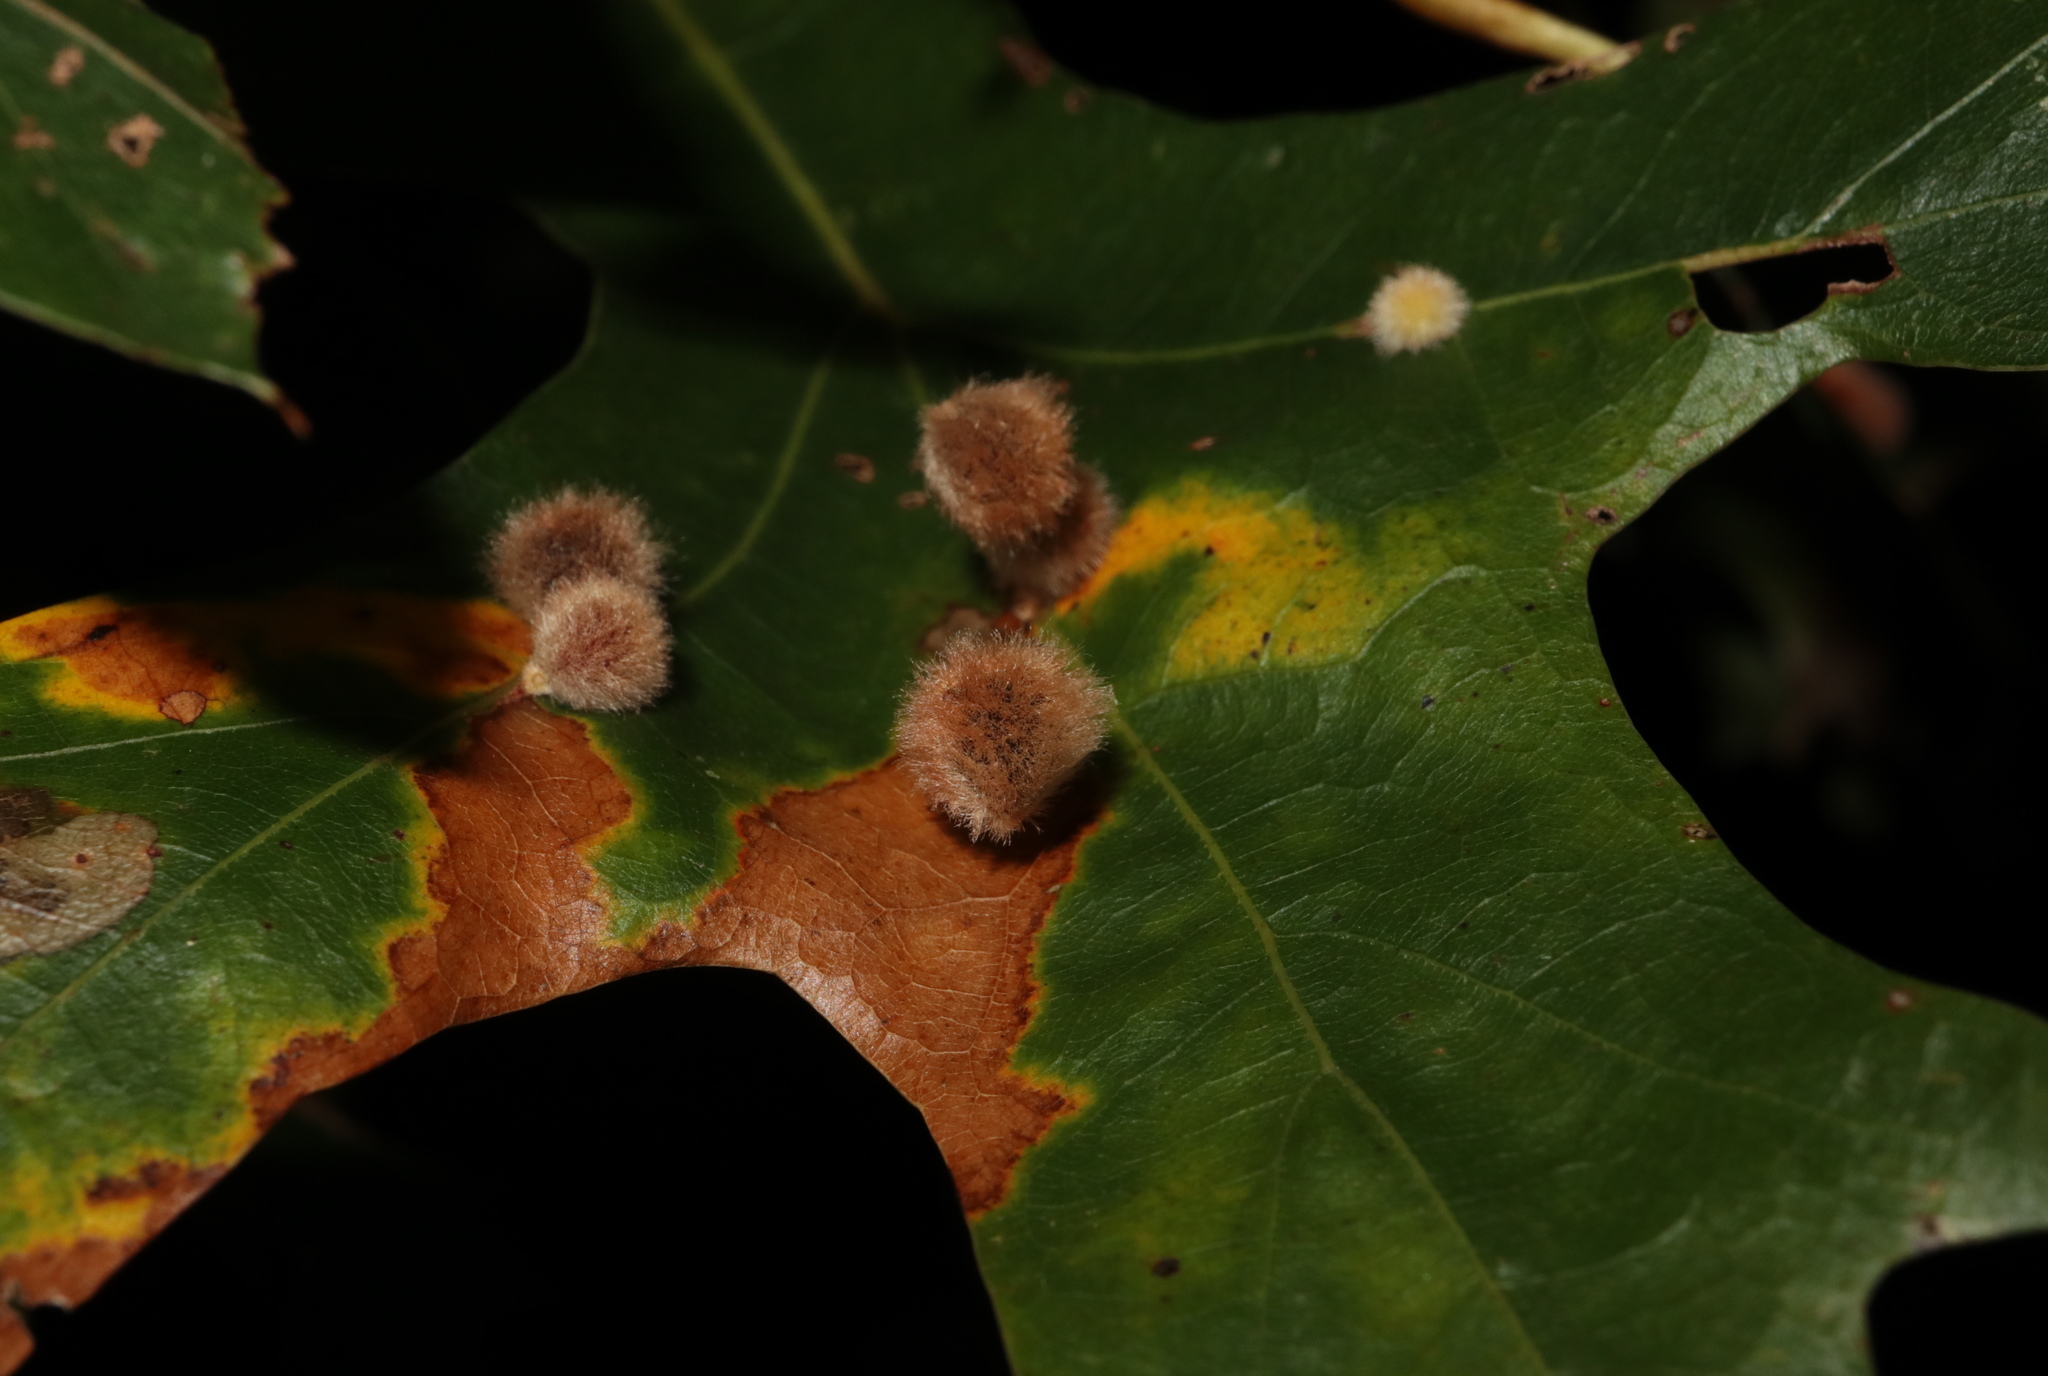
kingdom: Animalia
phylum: Arthropoda
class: Insecta
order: Hymenoptera
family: Cynipidae
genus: Callirhytis
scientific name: Callirhytis
